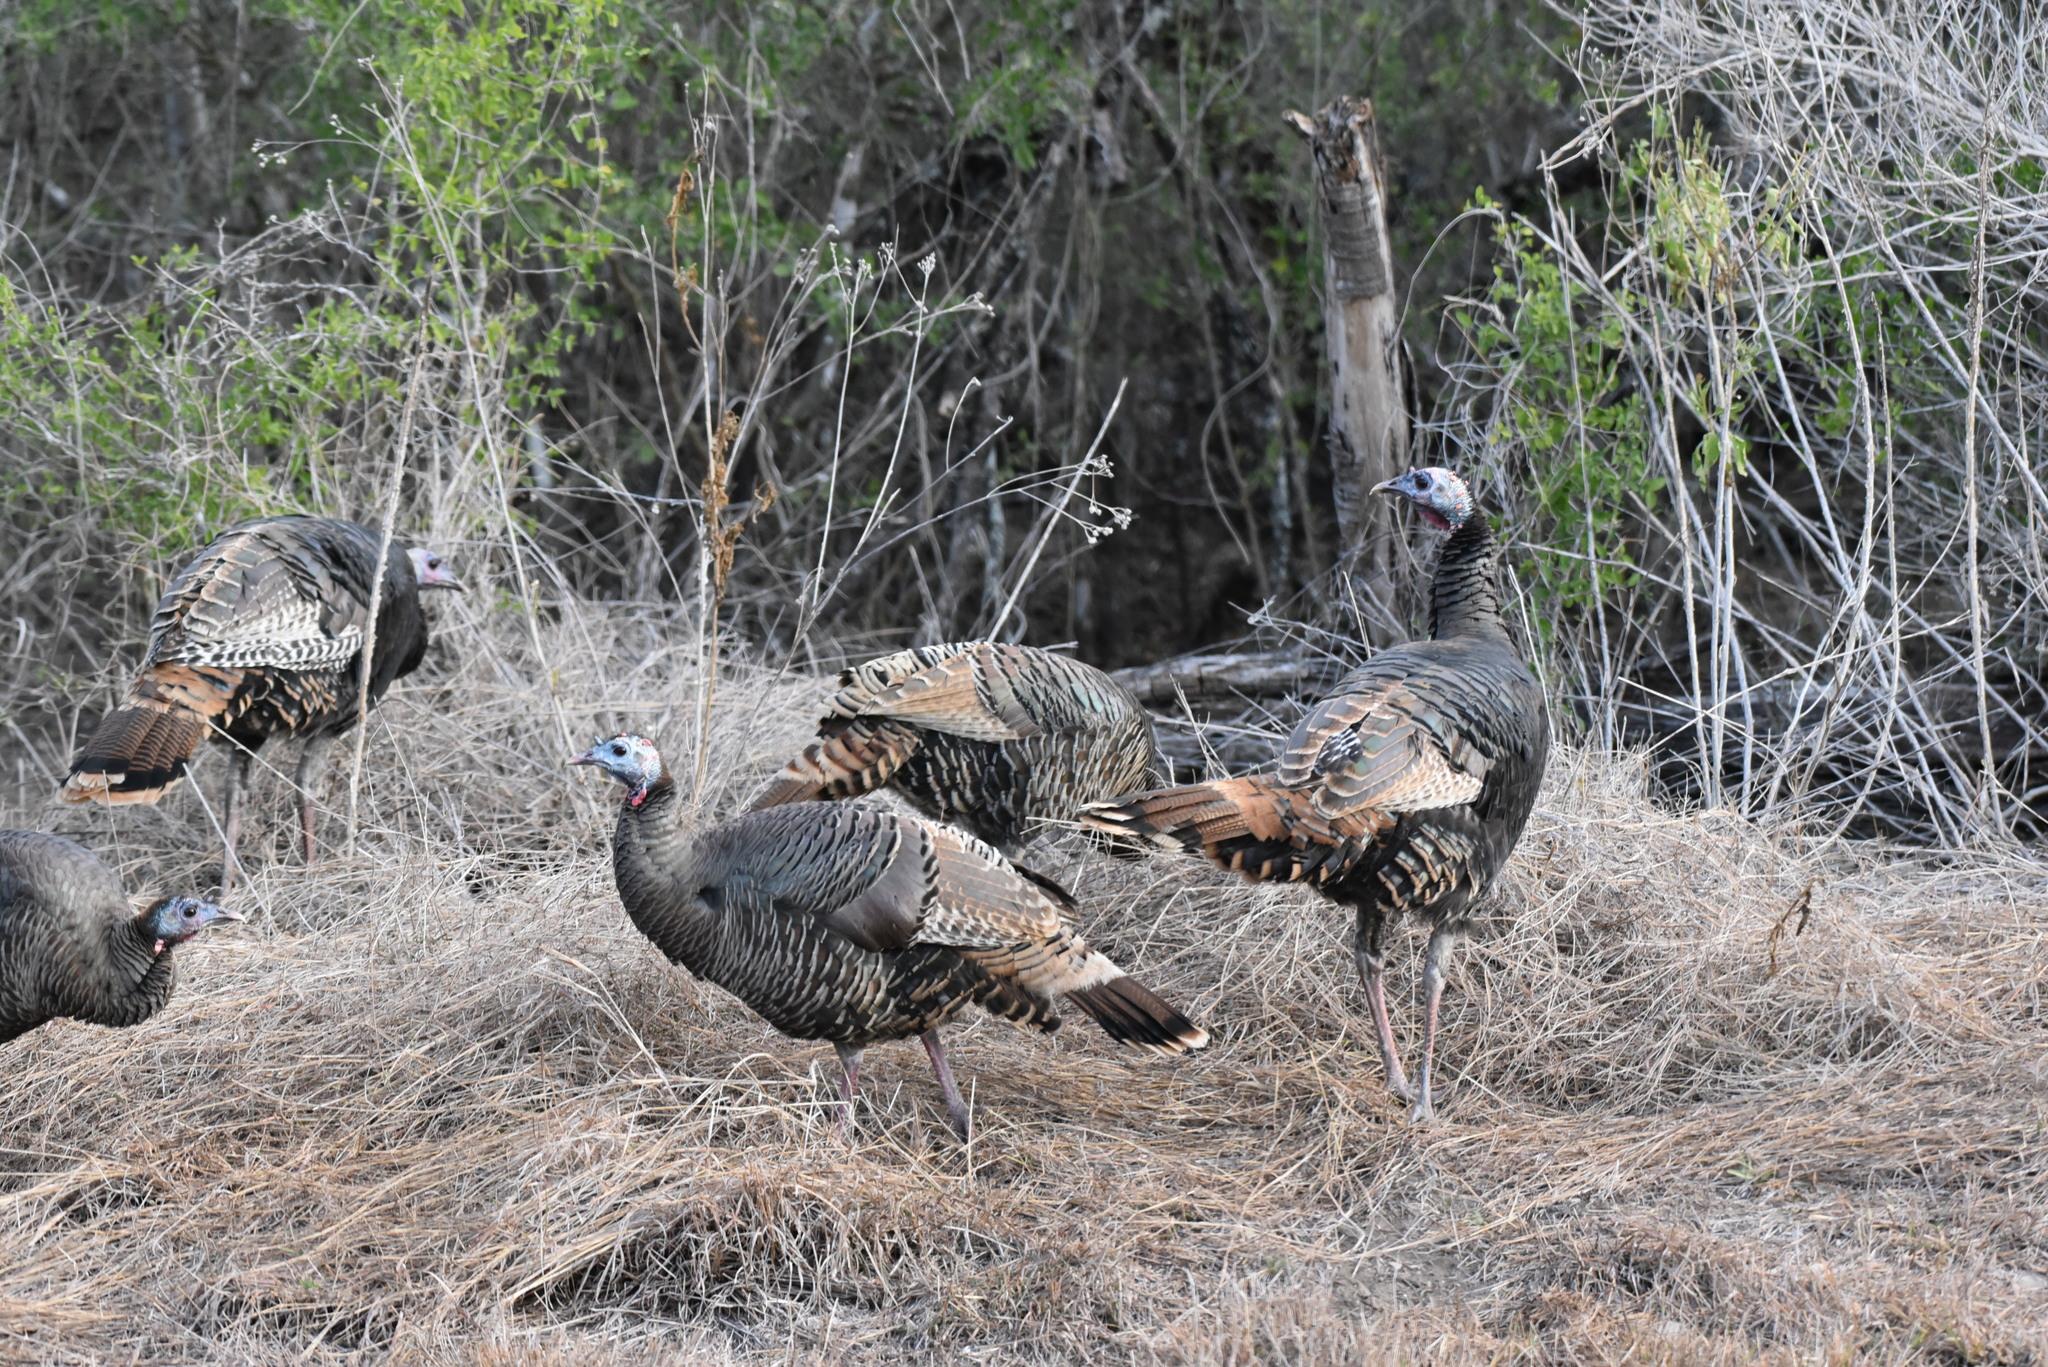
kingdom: Animalia
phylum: Chordata
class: Aves
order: Galliformes
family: Phasianidae
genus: Meleagris
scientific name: Meleagris gallopavo
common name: Wild turkey
